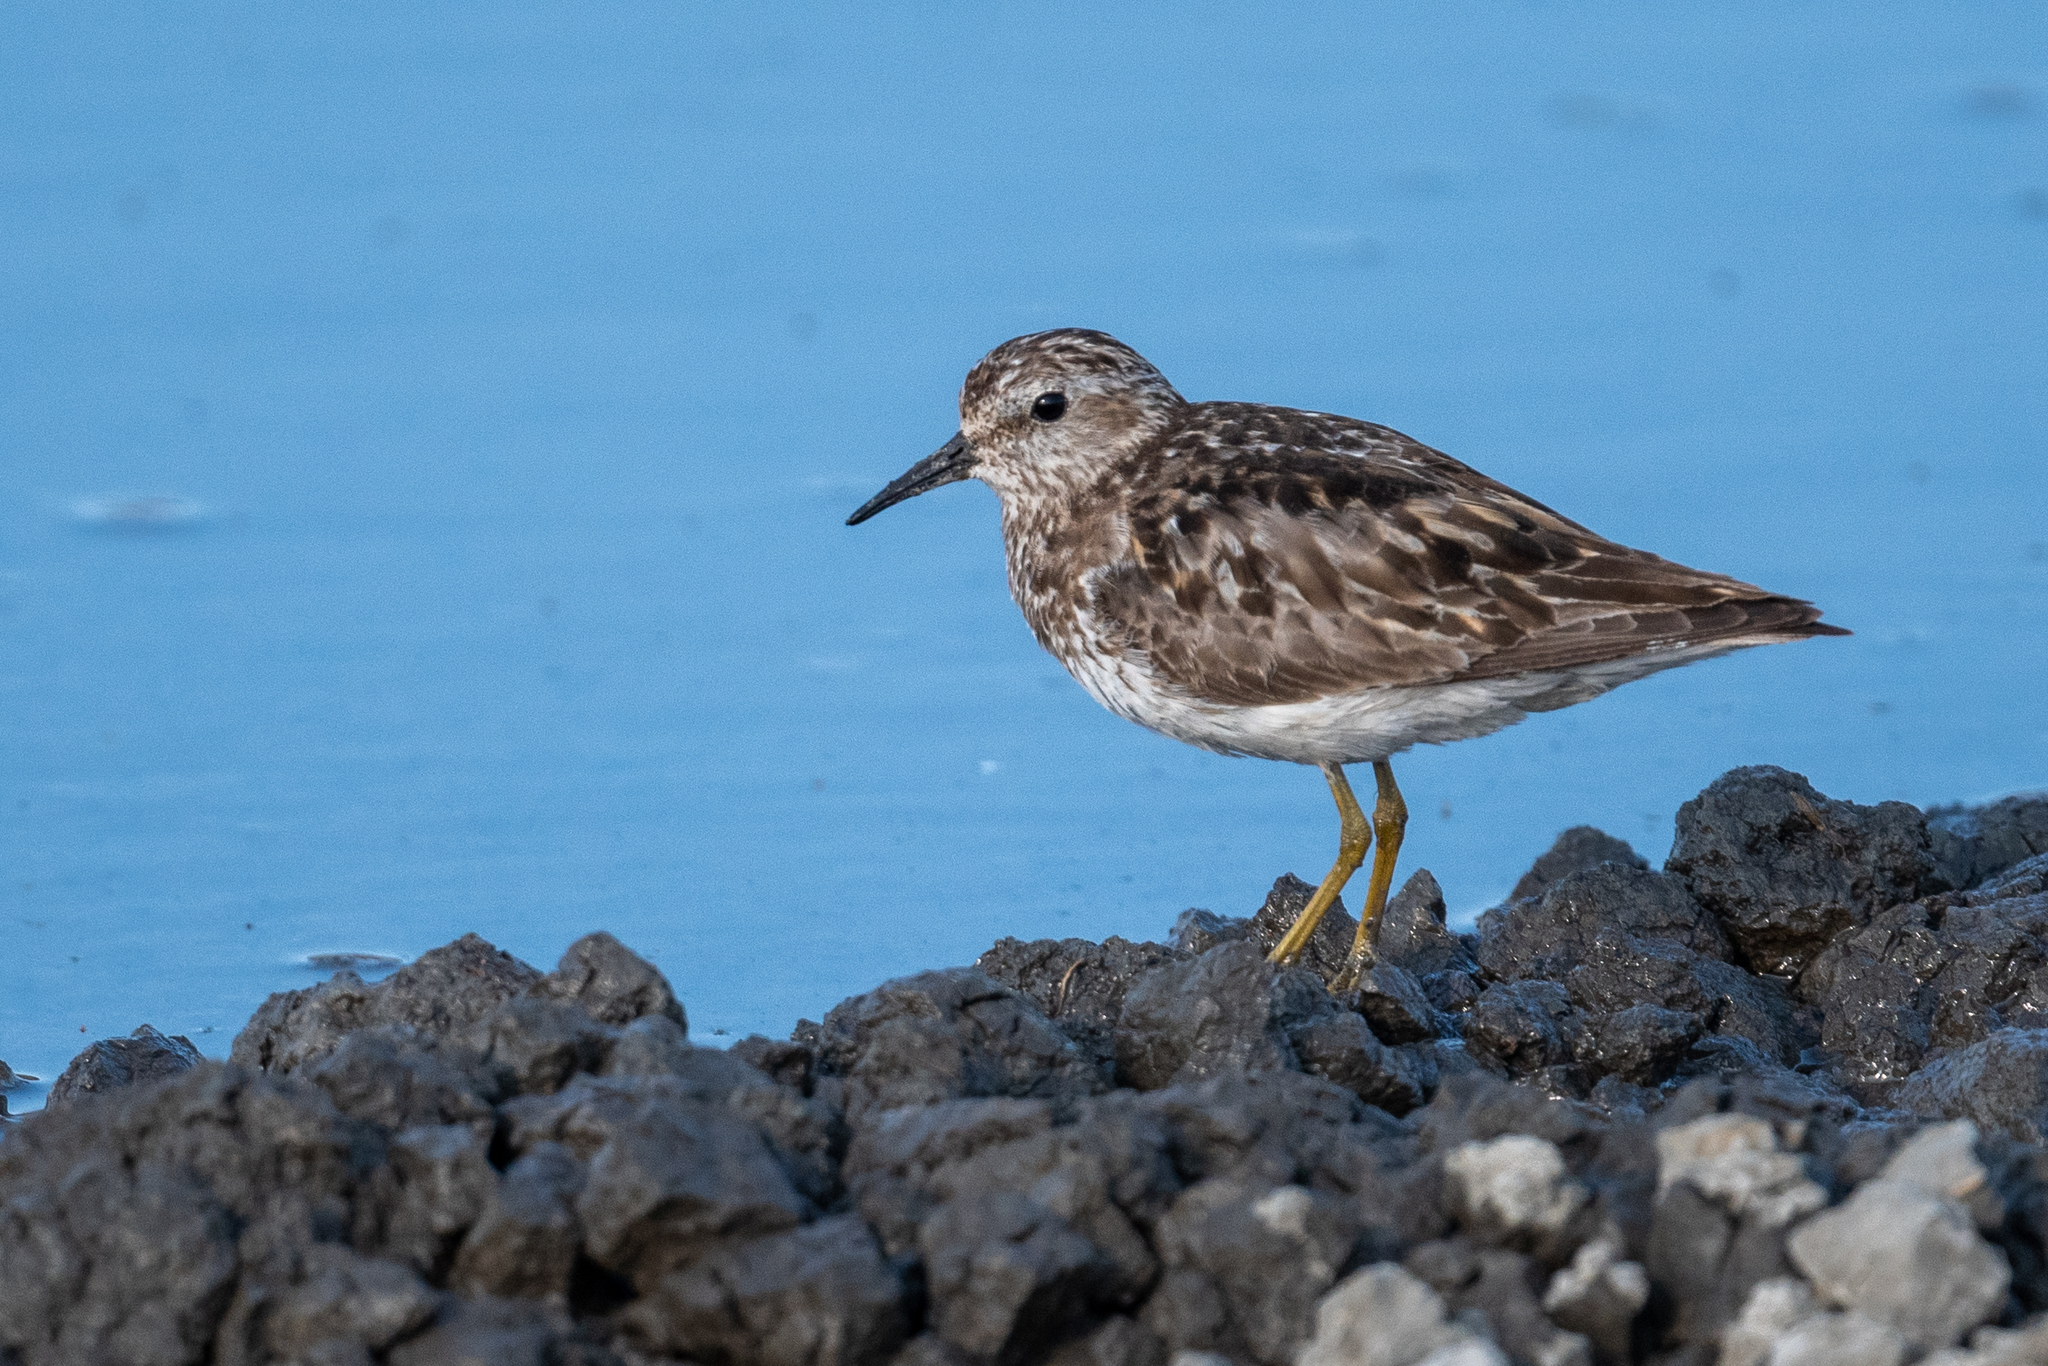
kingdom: Animalia
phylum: Chordata
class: Aves
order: Charadriiformes
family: Scolopacidae
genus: Calidris
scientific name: Calidris minutilla
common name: Least sandpiper
